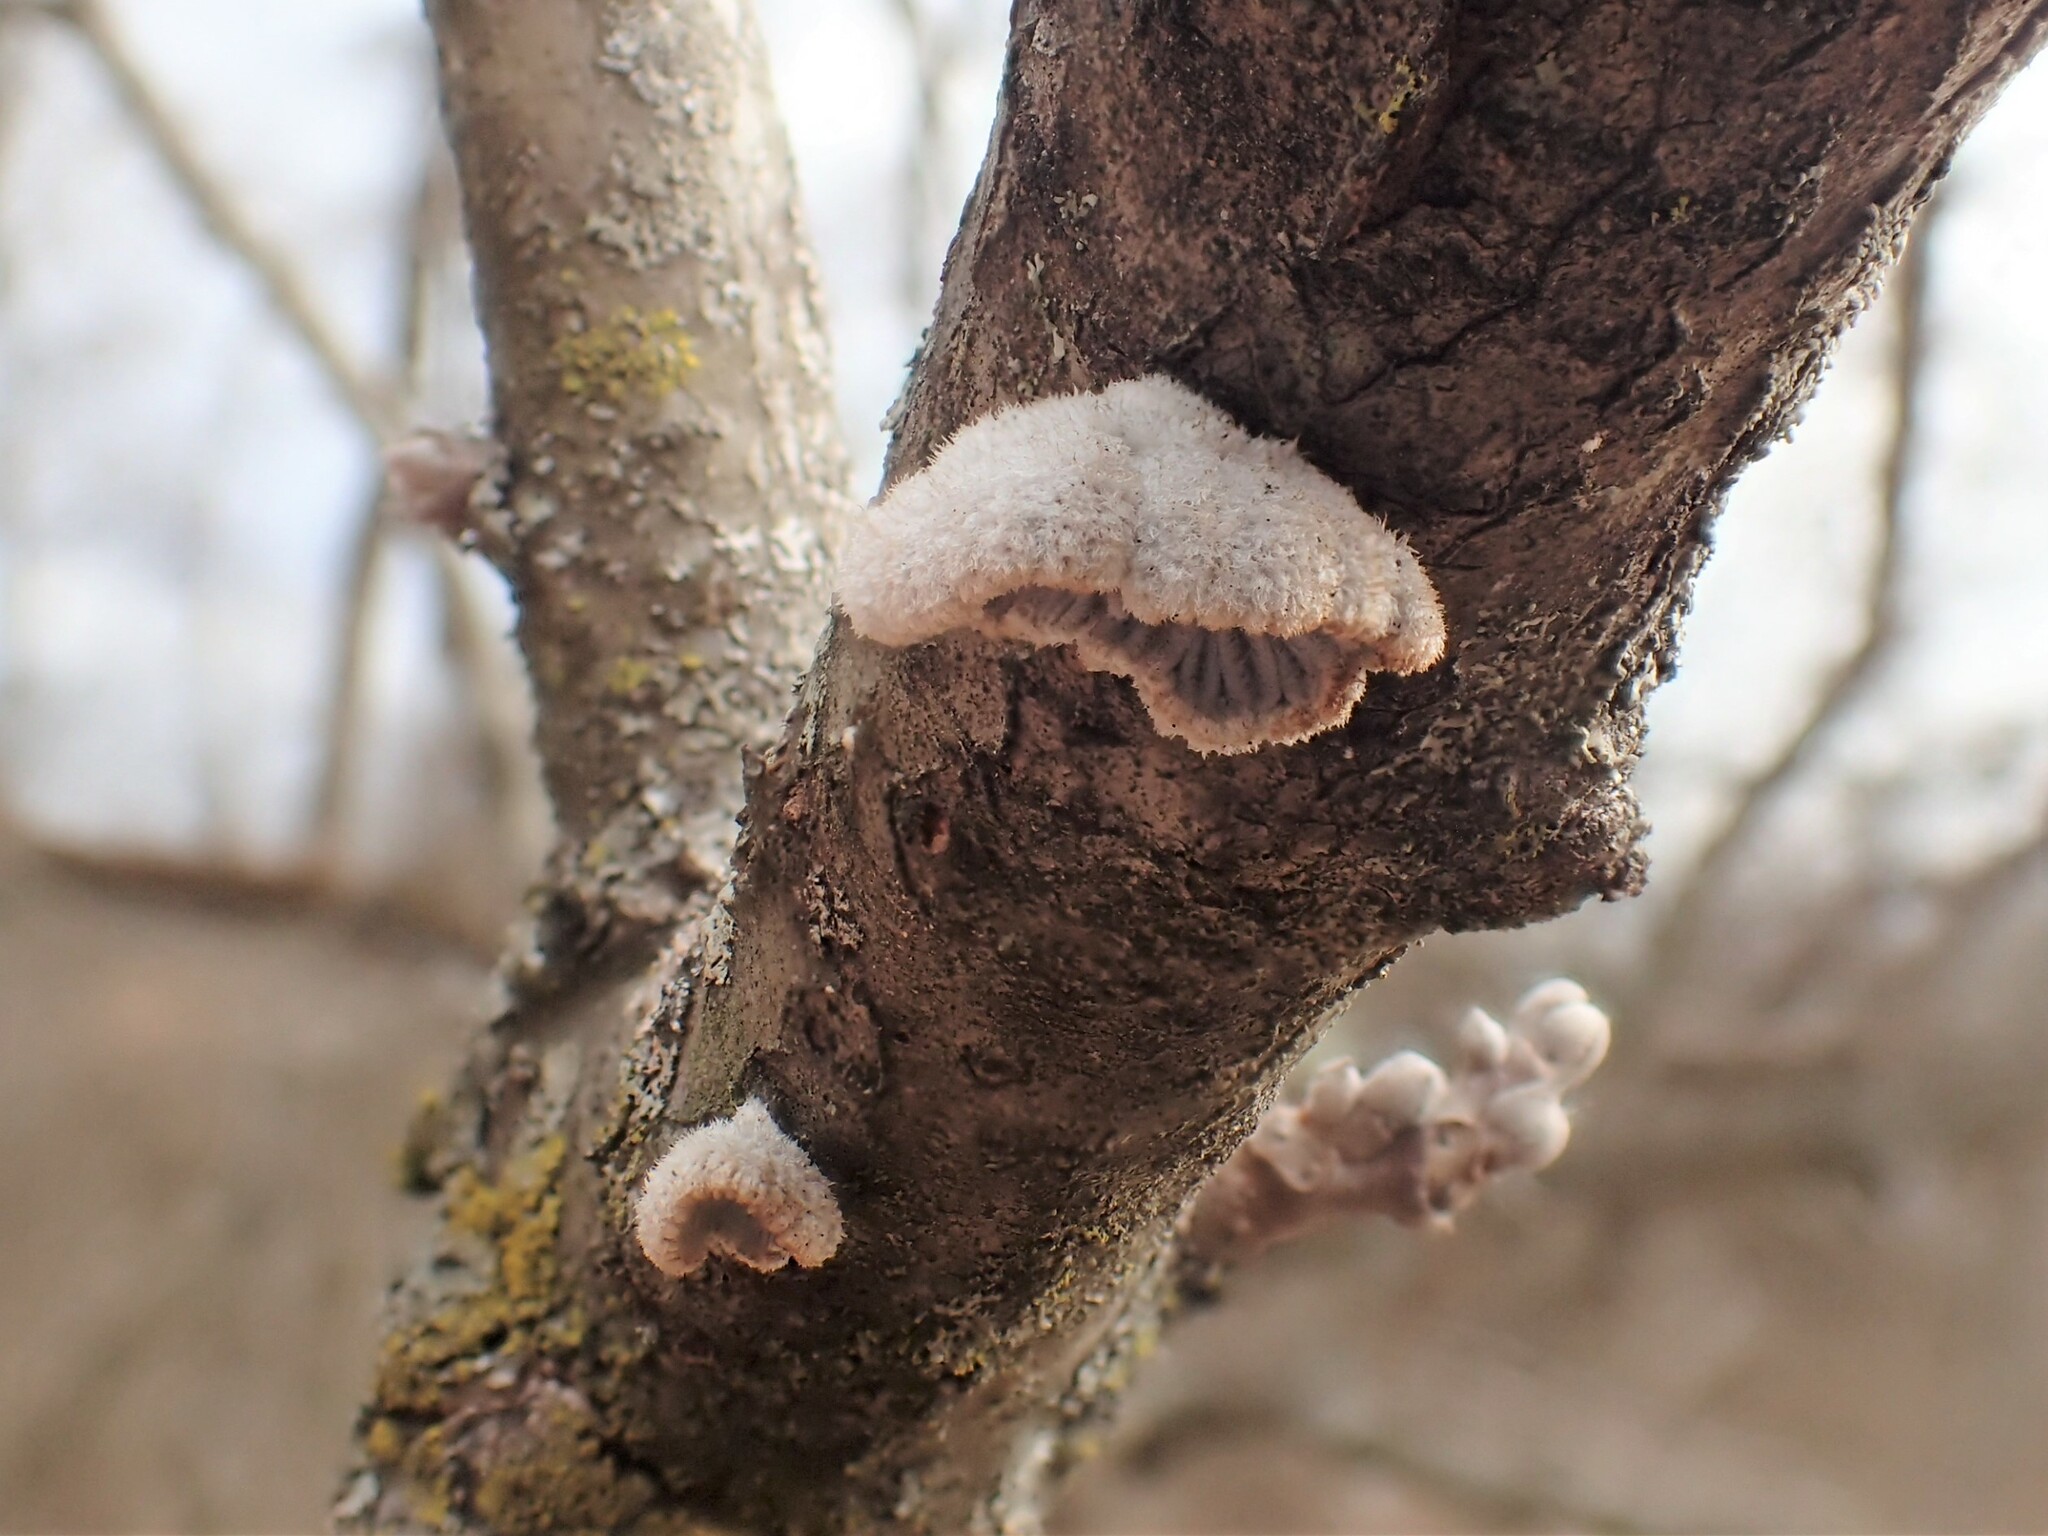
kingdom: Fungi
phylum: Basidiomycota
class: Agaricomycetes
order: Agaricales
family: Schizophyllaceae
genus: Schizophyllum
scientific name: Schizophyllum commune
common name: Common porecrust
